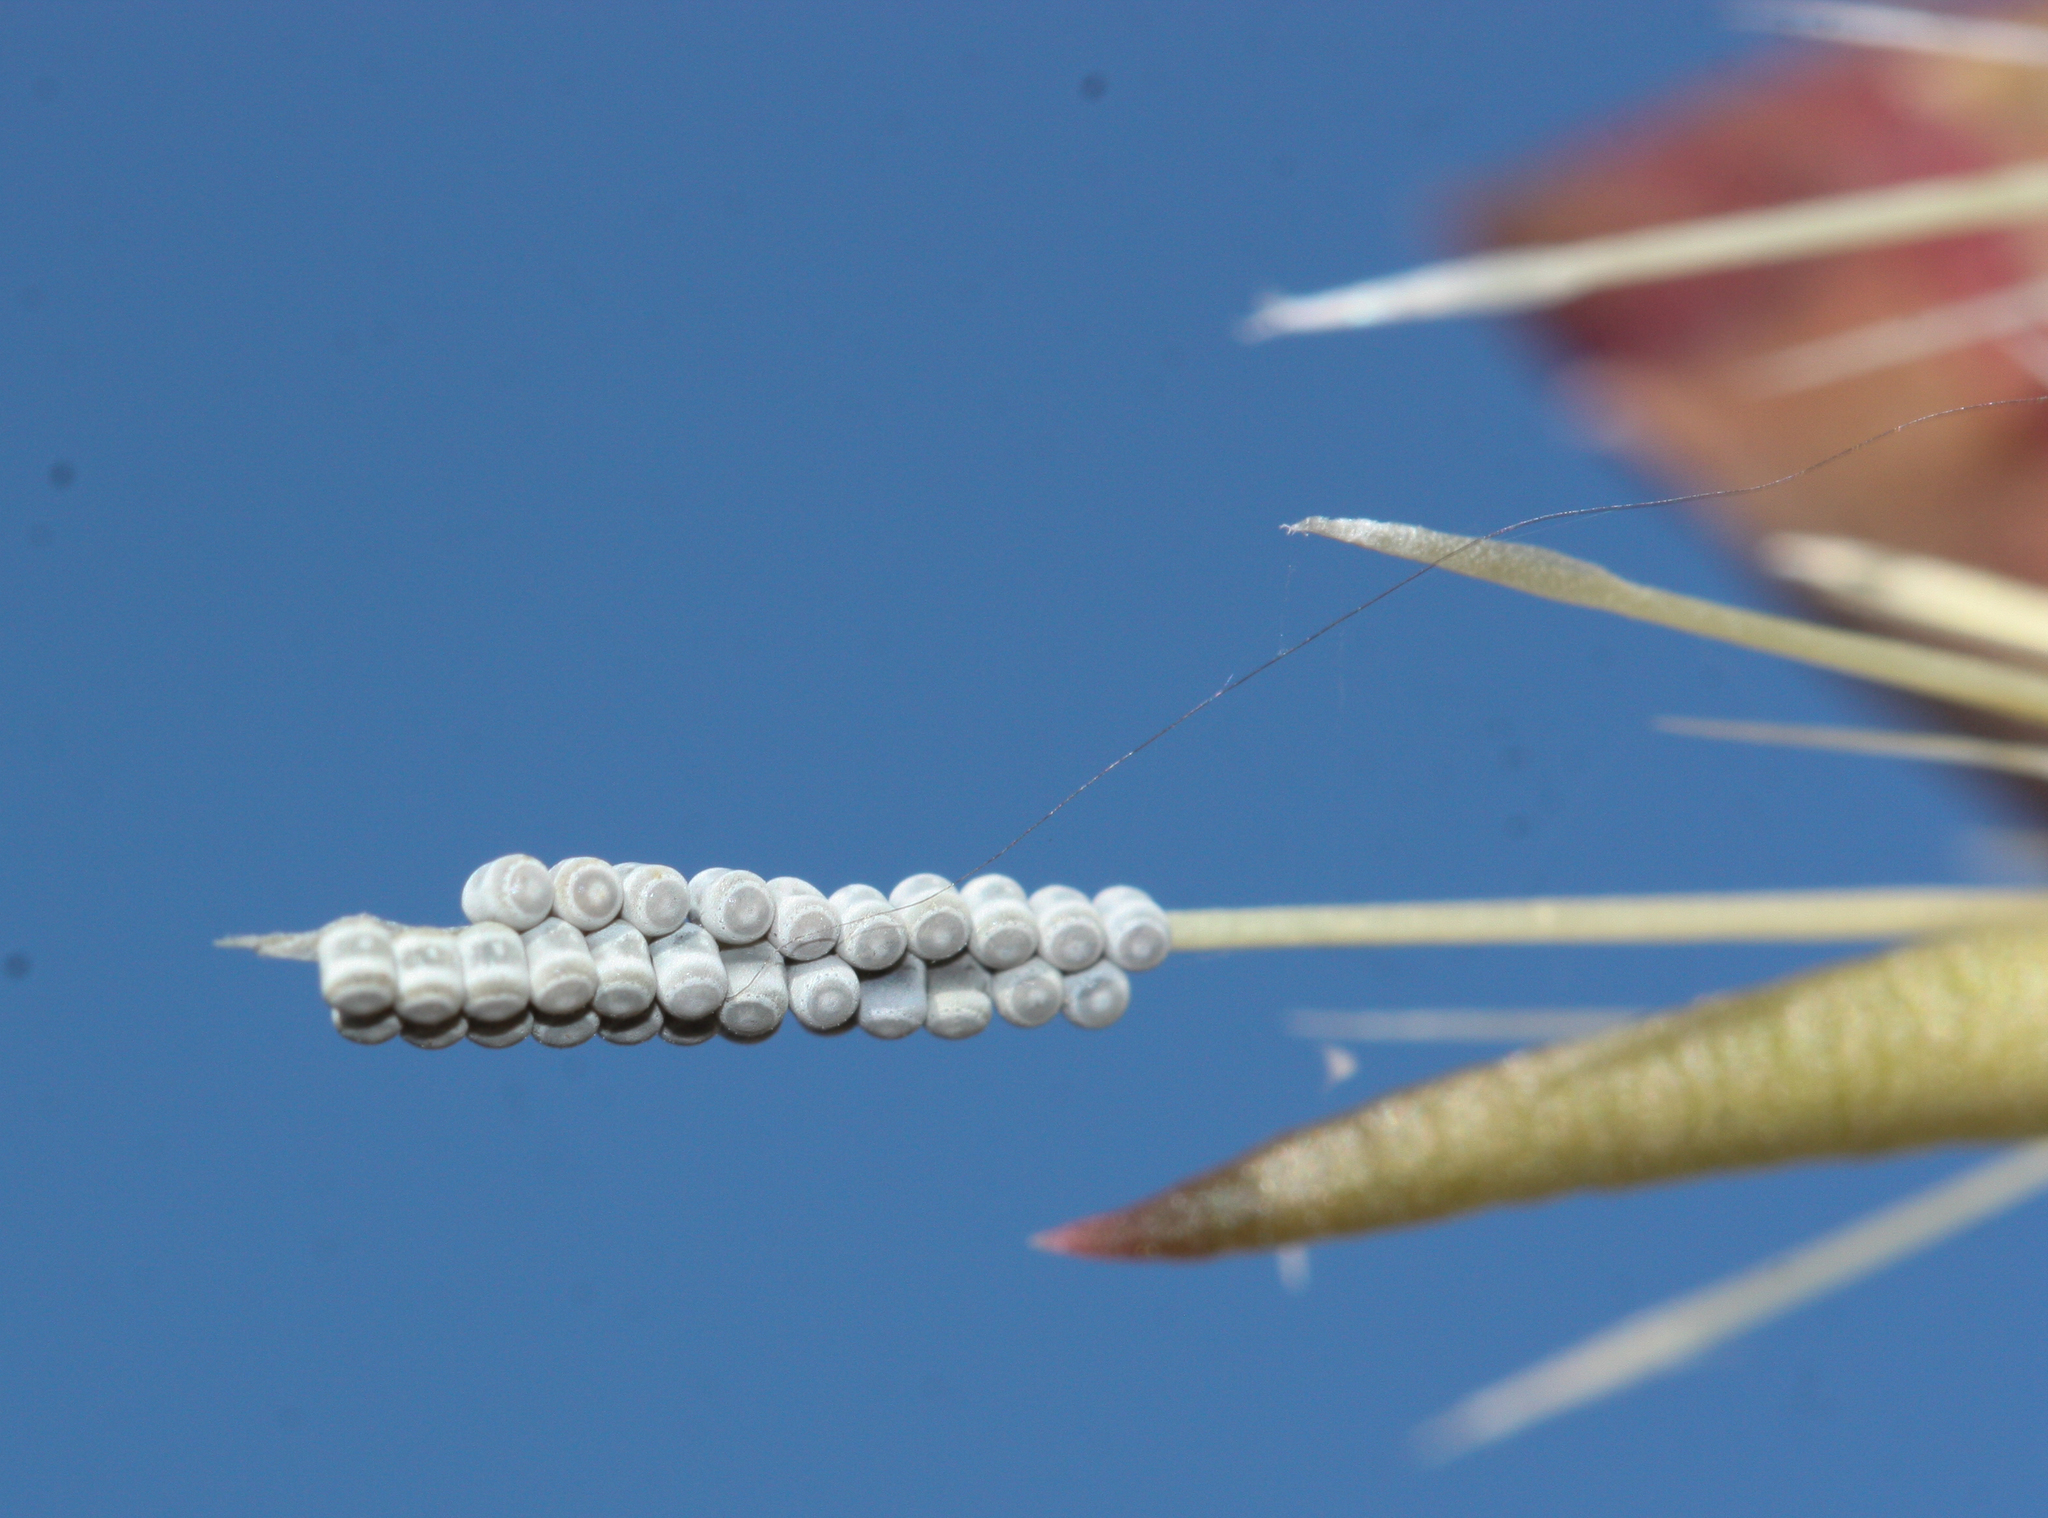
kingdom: Animalia
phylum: Arthropoda
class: Insecta
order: Hemiptera
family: Pentatomidae
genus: Chlorochroa
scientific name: Chlorochroa opuntiae
